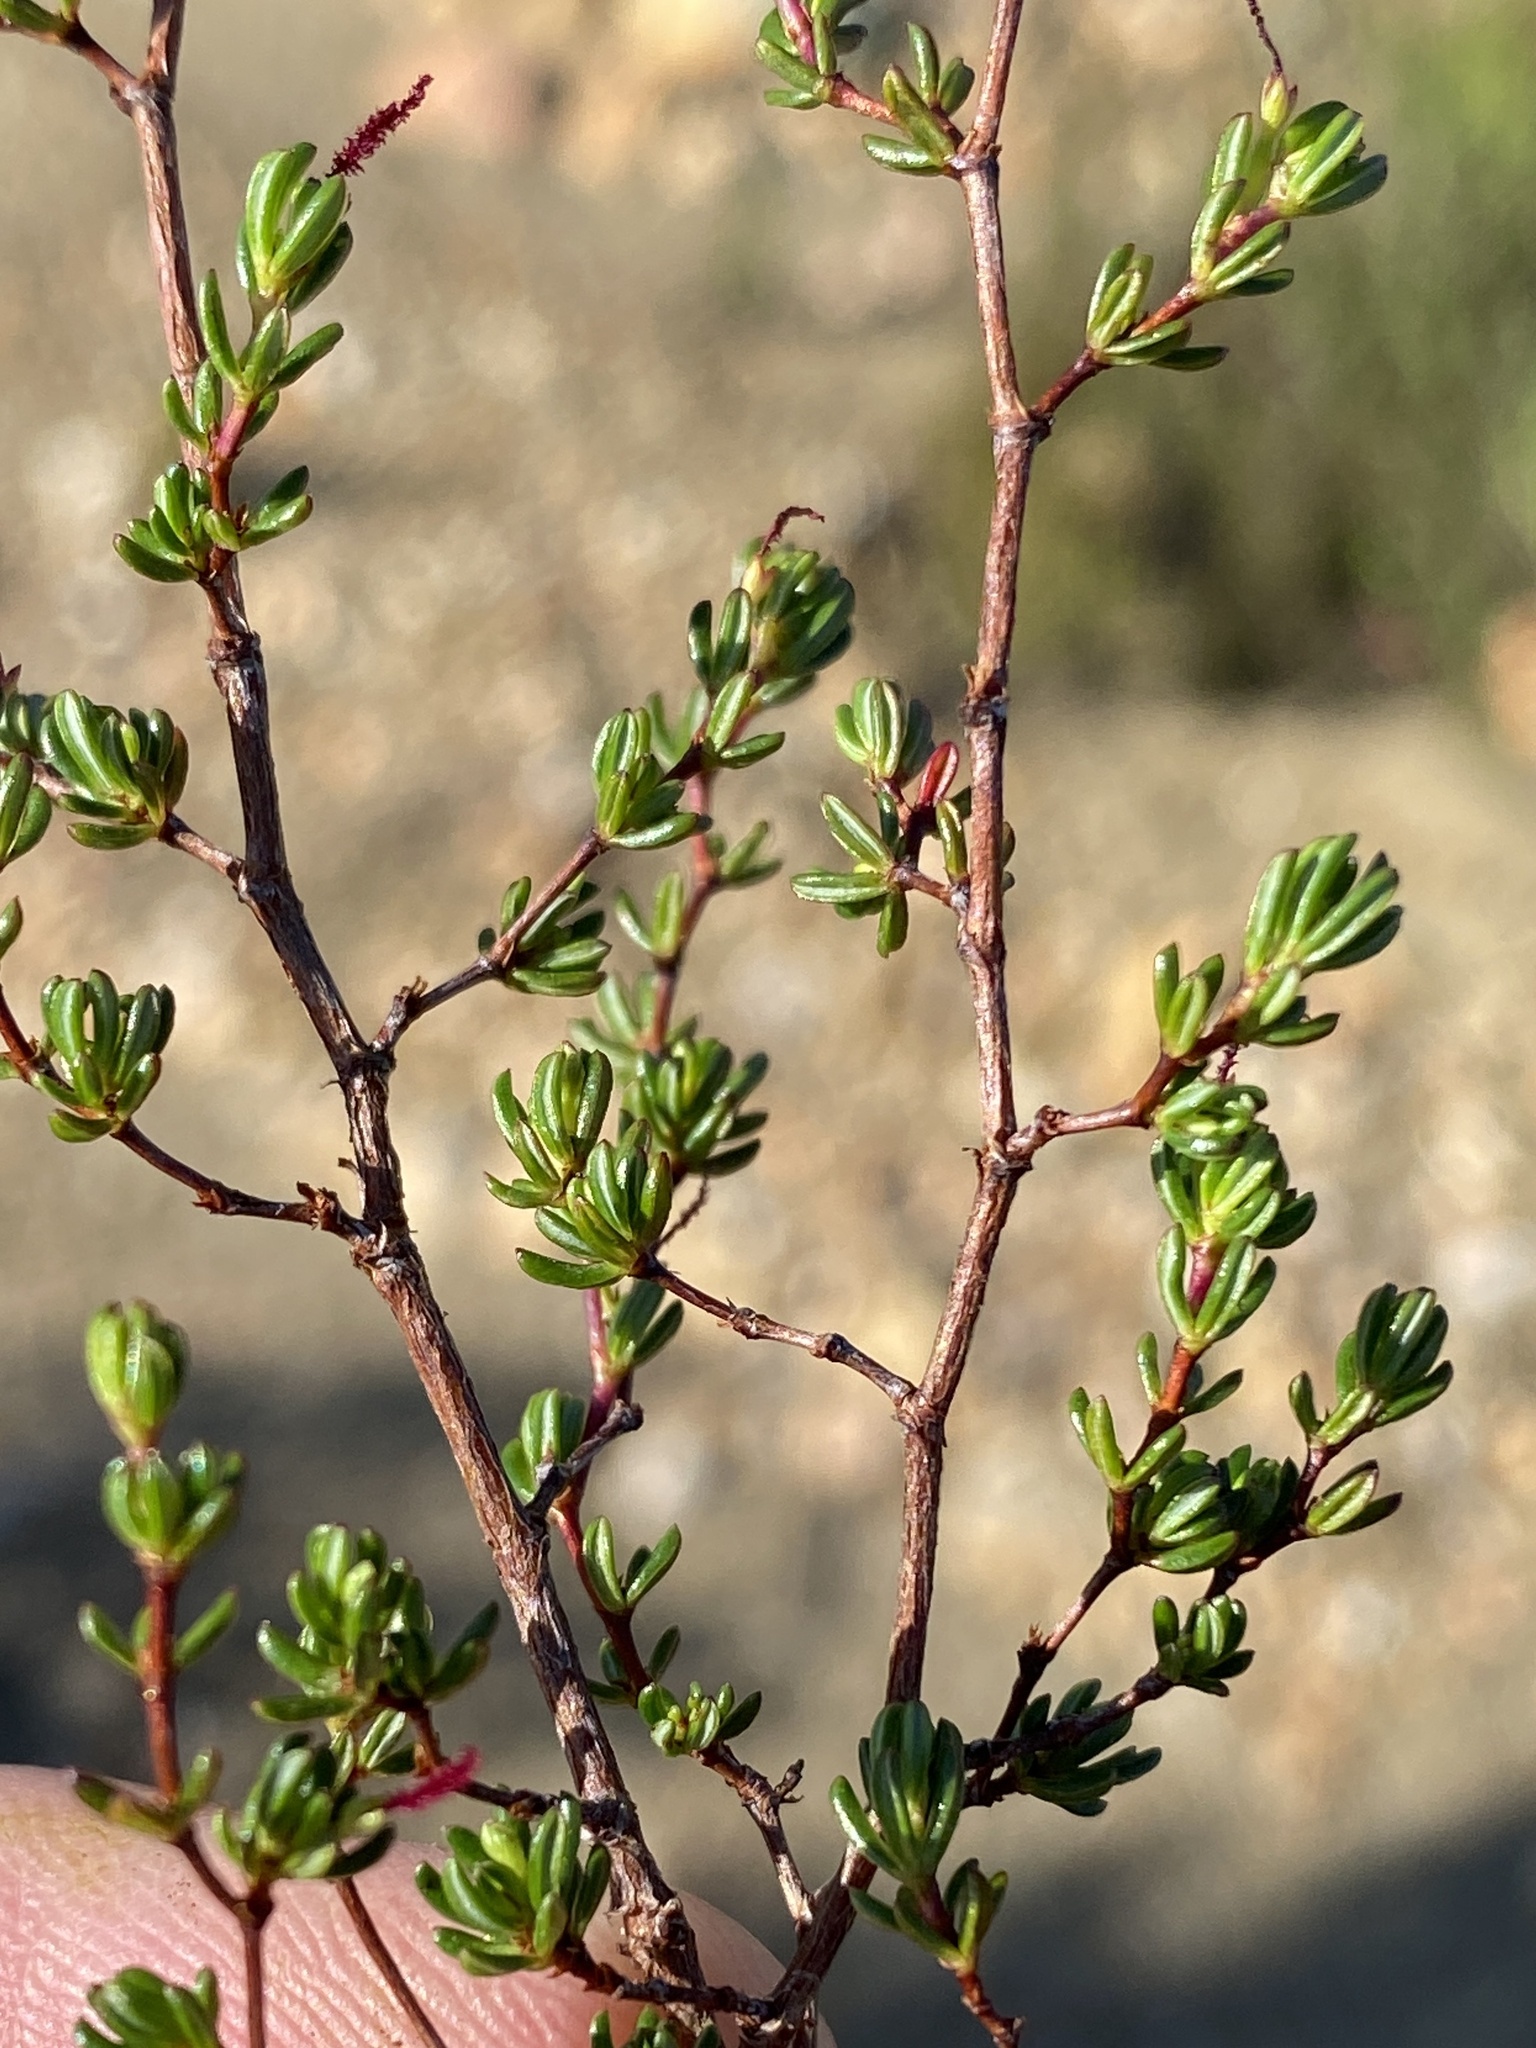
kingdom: Plantae
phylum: Tracheophyta
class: Magnoliopsida
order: Rosales
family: Rosaceae
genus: Cliffortia
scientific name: Cliffortia polita
